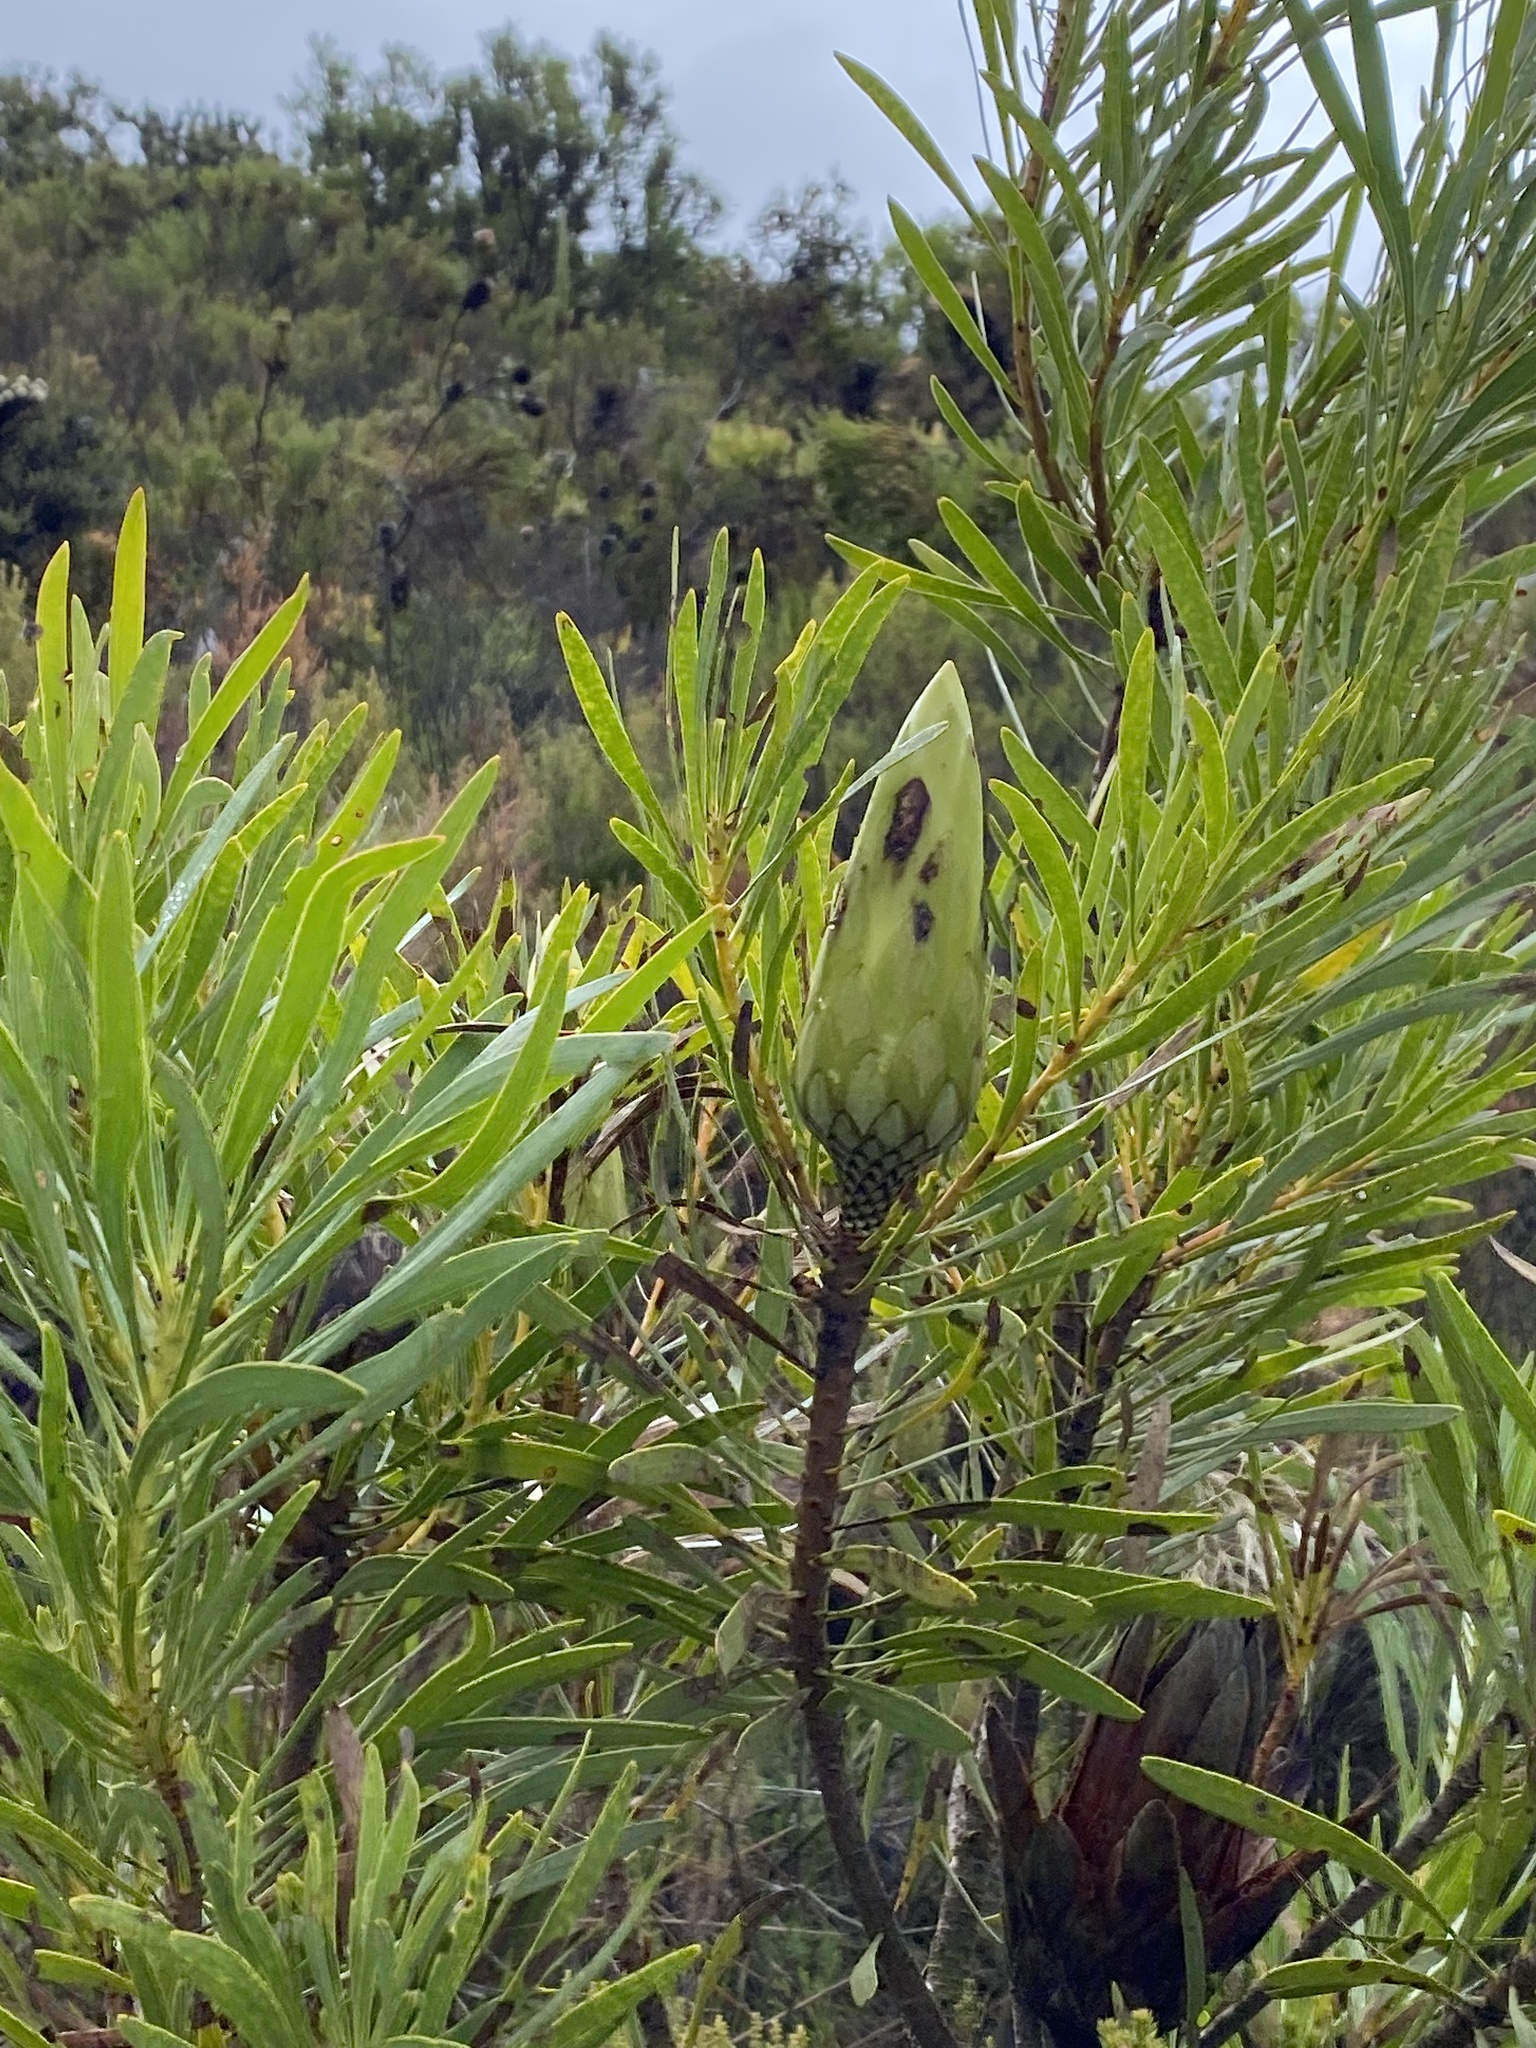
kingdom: Plantae
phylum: Tracheophyta
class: Magnoliopsida
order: Proteales
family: Proteaceae
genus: Protea
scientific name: Protea repens
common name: Sugarbush
